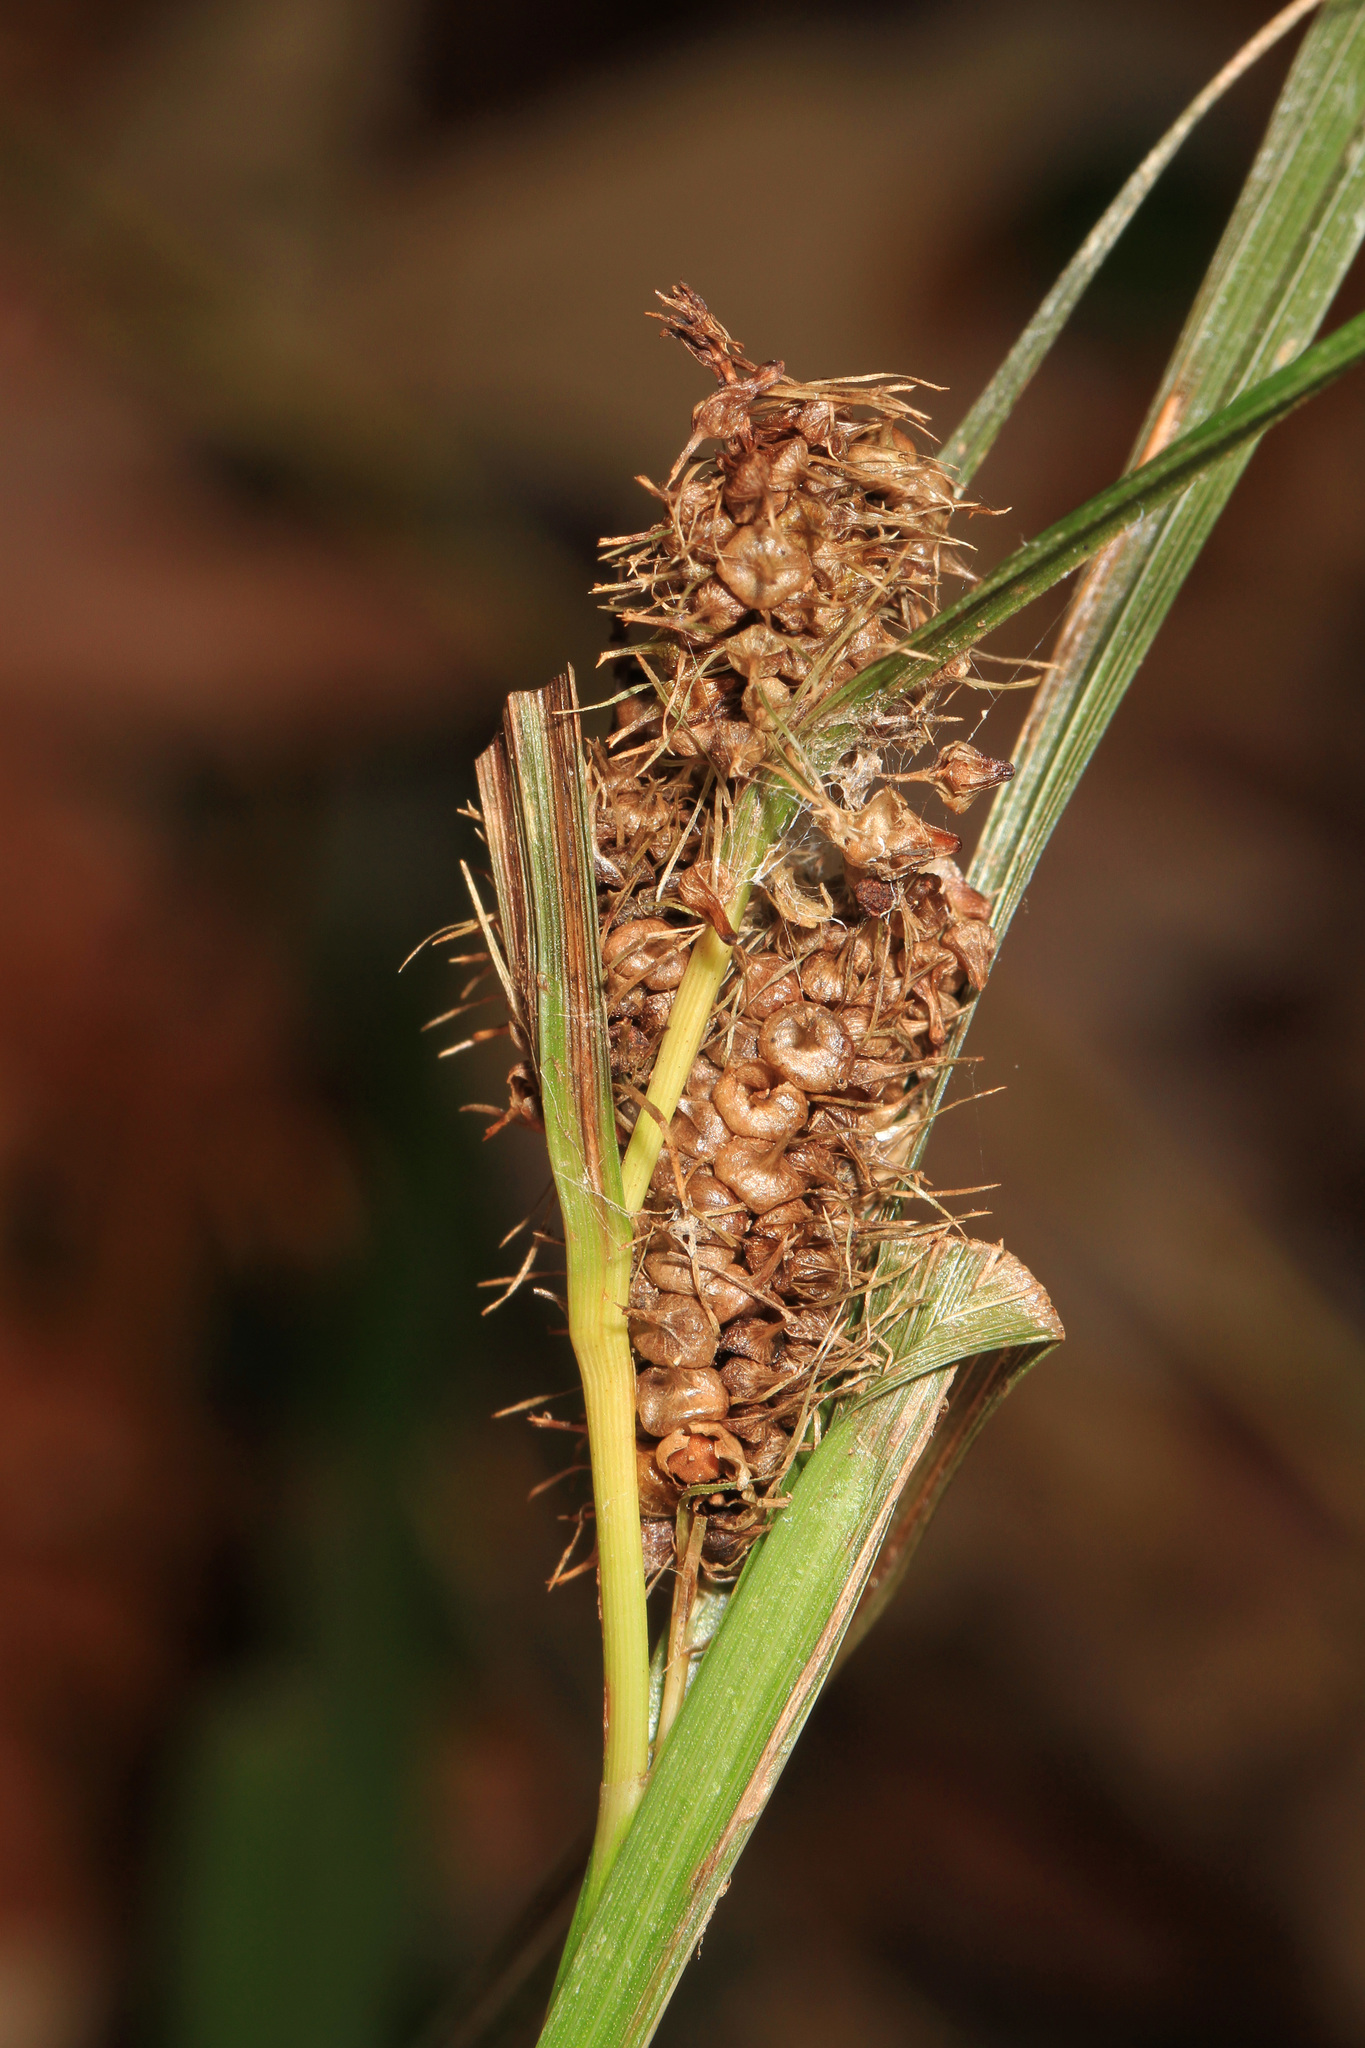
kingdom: Plantae
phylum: Tracheophyta
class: Liliopsida
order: Poales
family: Cyperaceae
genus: Carex
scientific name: Carex frankii
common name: Frank's sedge
